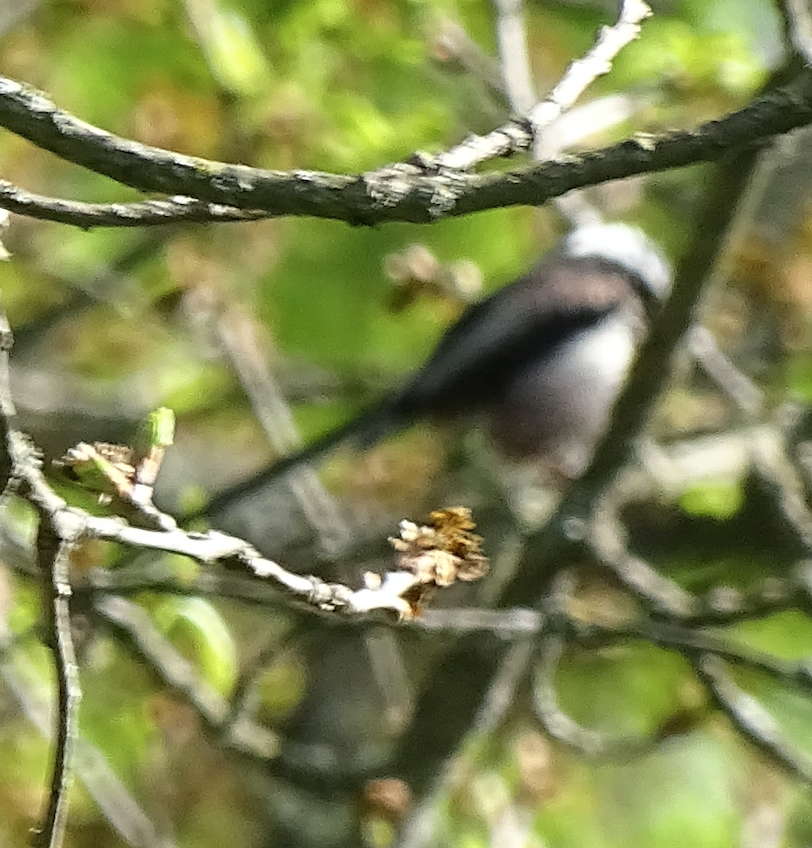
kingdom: Animalia
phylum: Chordata
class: Aves
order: Passeriformes
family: Aegithalidae
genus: Aegithalos
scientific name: Aegithalos caudatus
